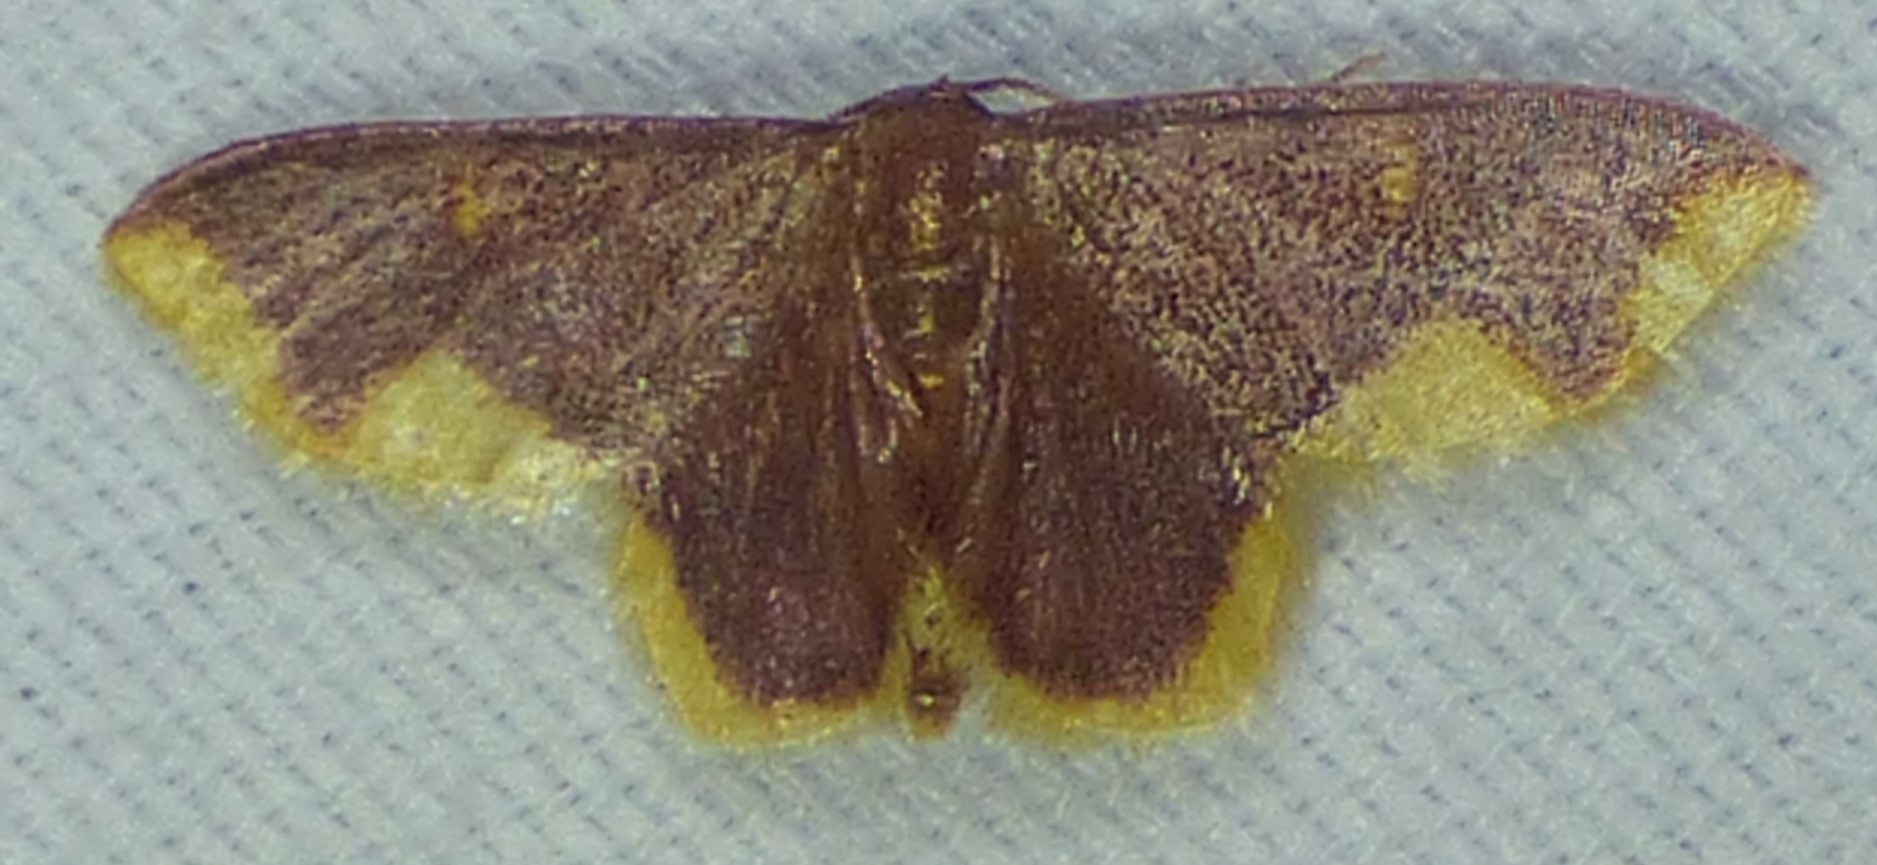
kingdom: Animalia
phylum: Arthropoda
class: Insecta
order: Lepidoptera
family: Geometridae
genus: Lophosis
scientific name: Lophosis labeculata
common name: Stained lophosis moth
